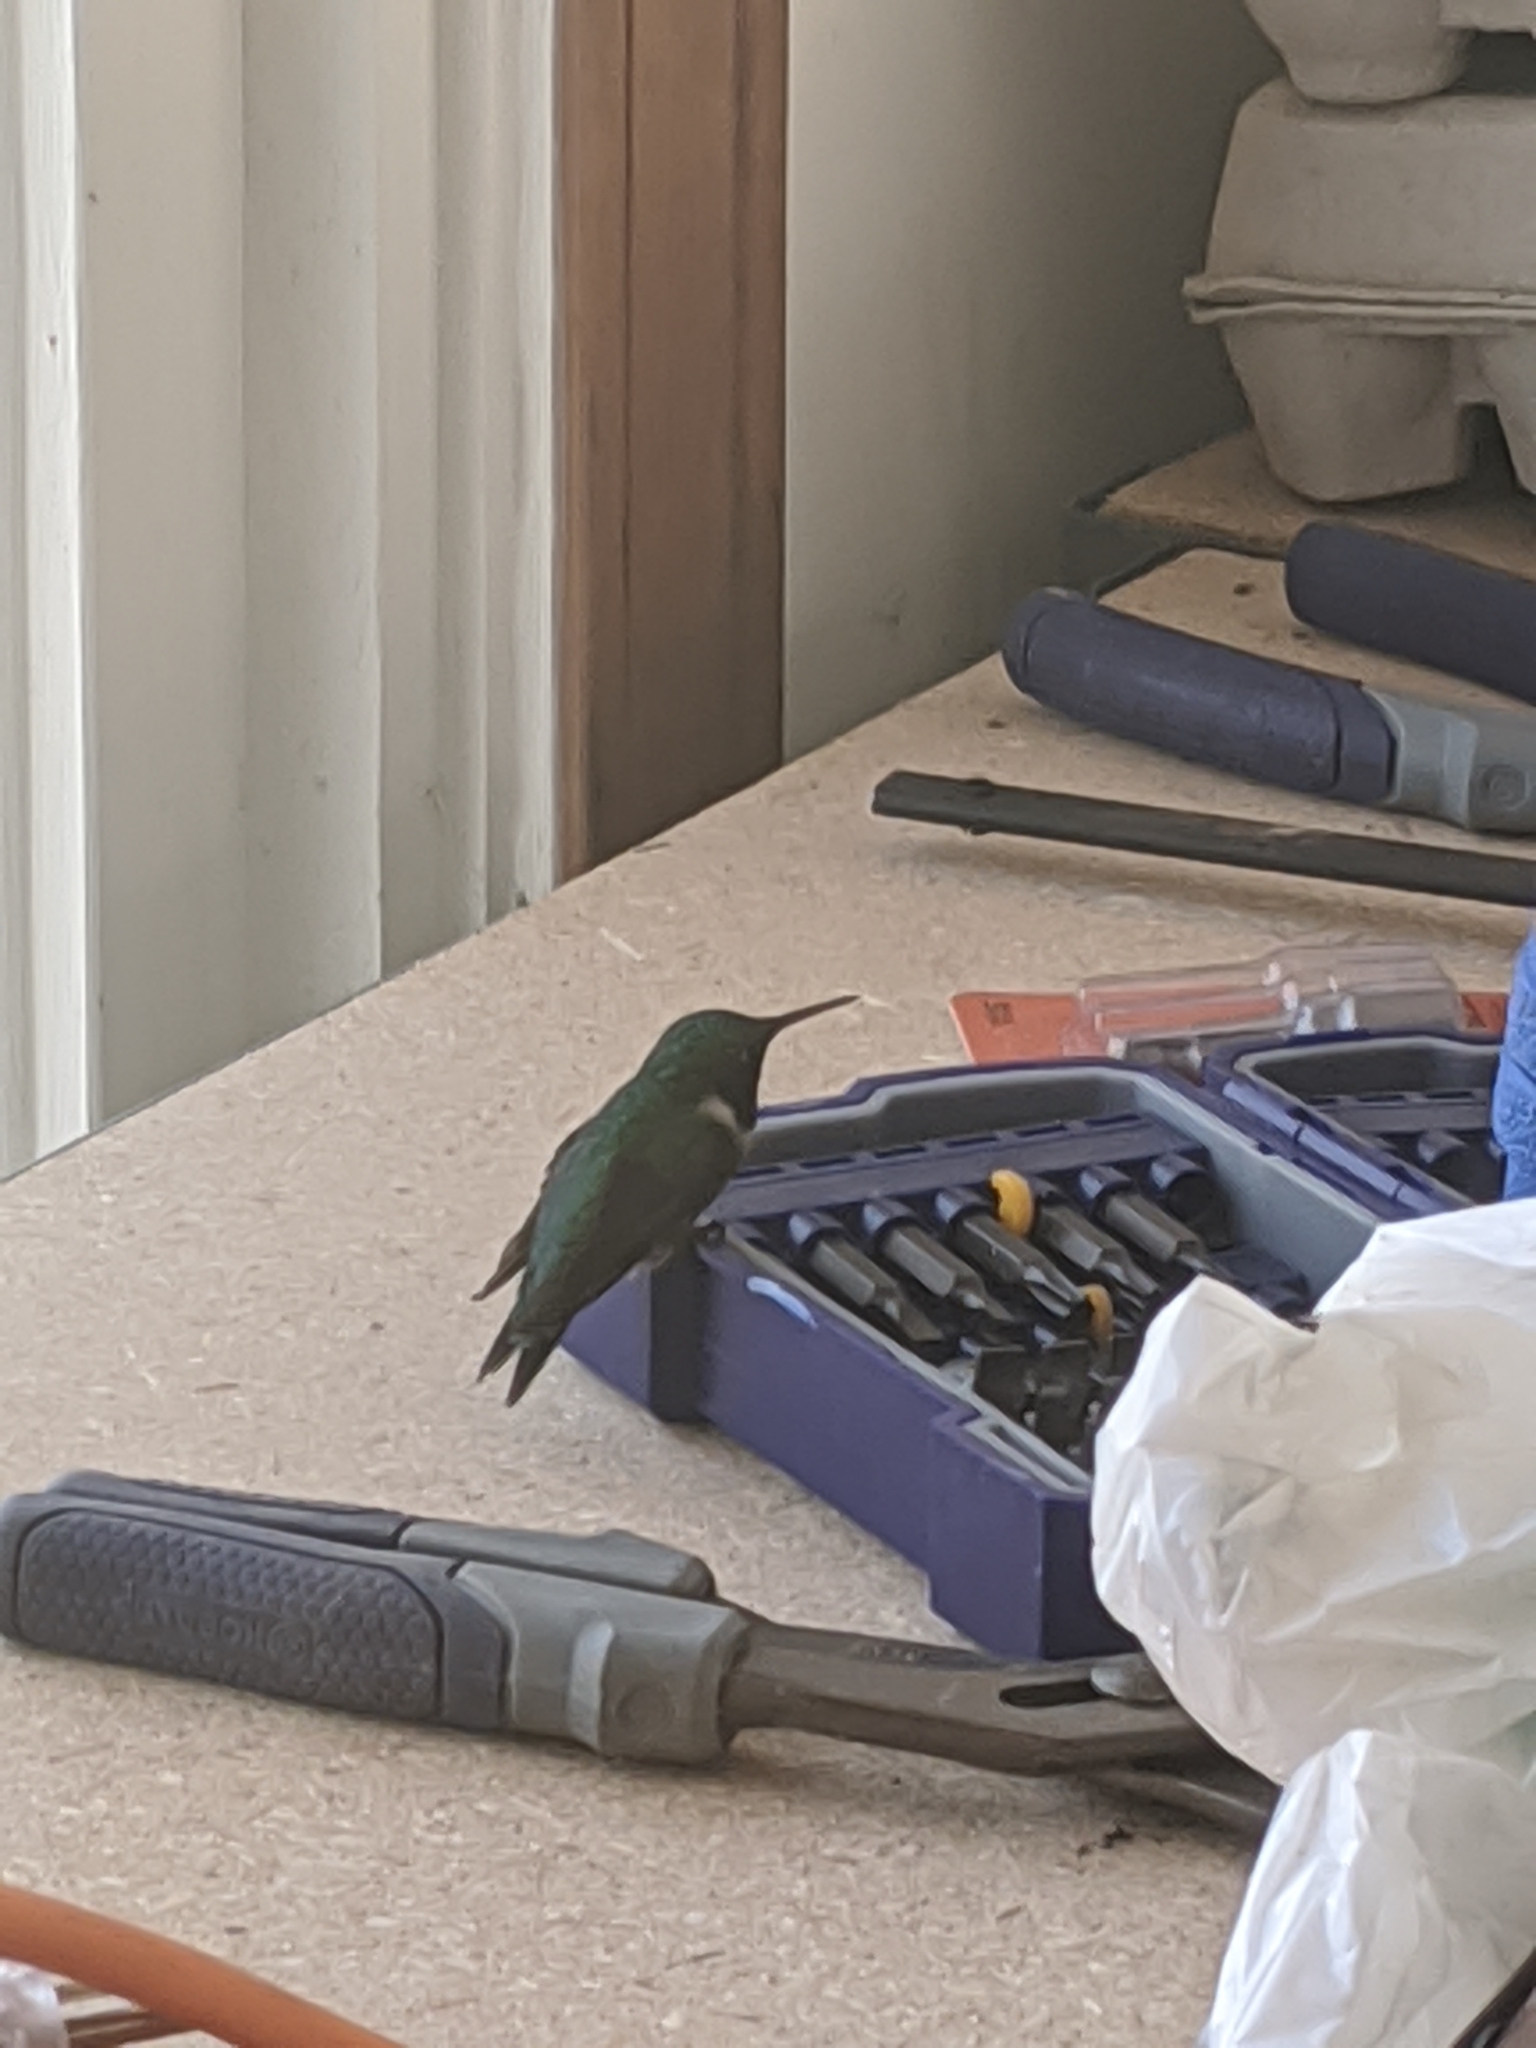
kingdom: Animalia
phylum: Chordata
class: Aves
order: Apodiformes
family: Trochilidae
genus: Archilochus
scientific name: Archilochus colubris
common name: Ruby-throated hummingbird
